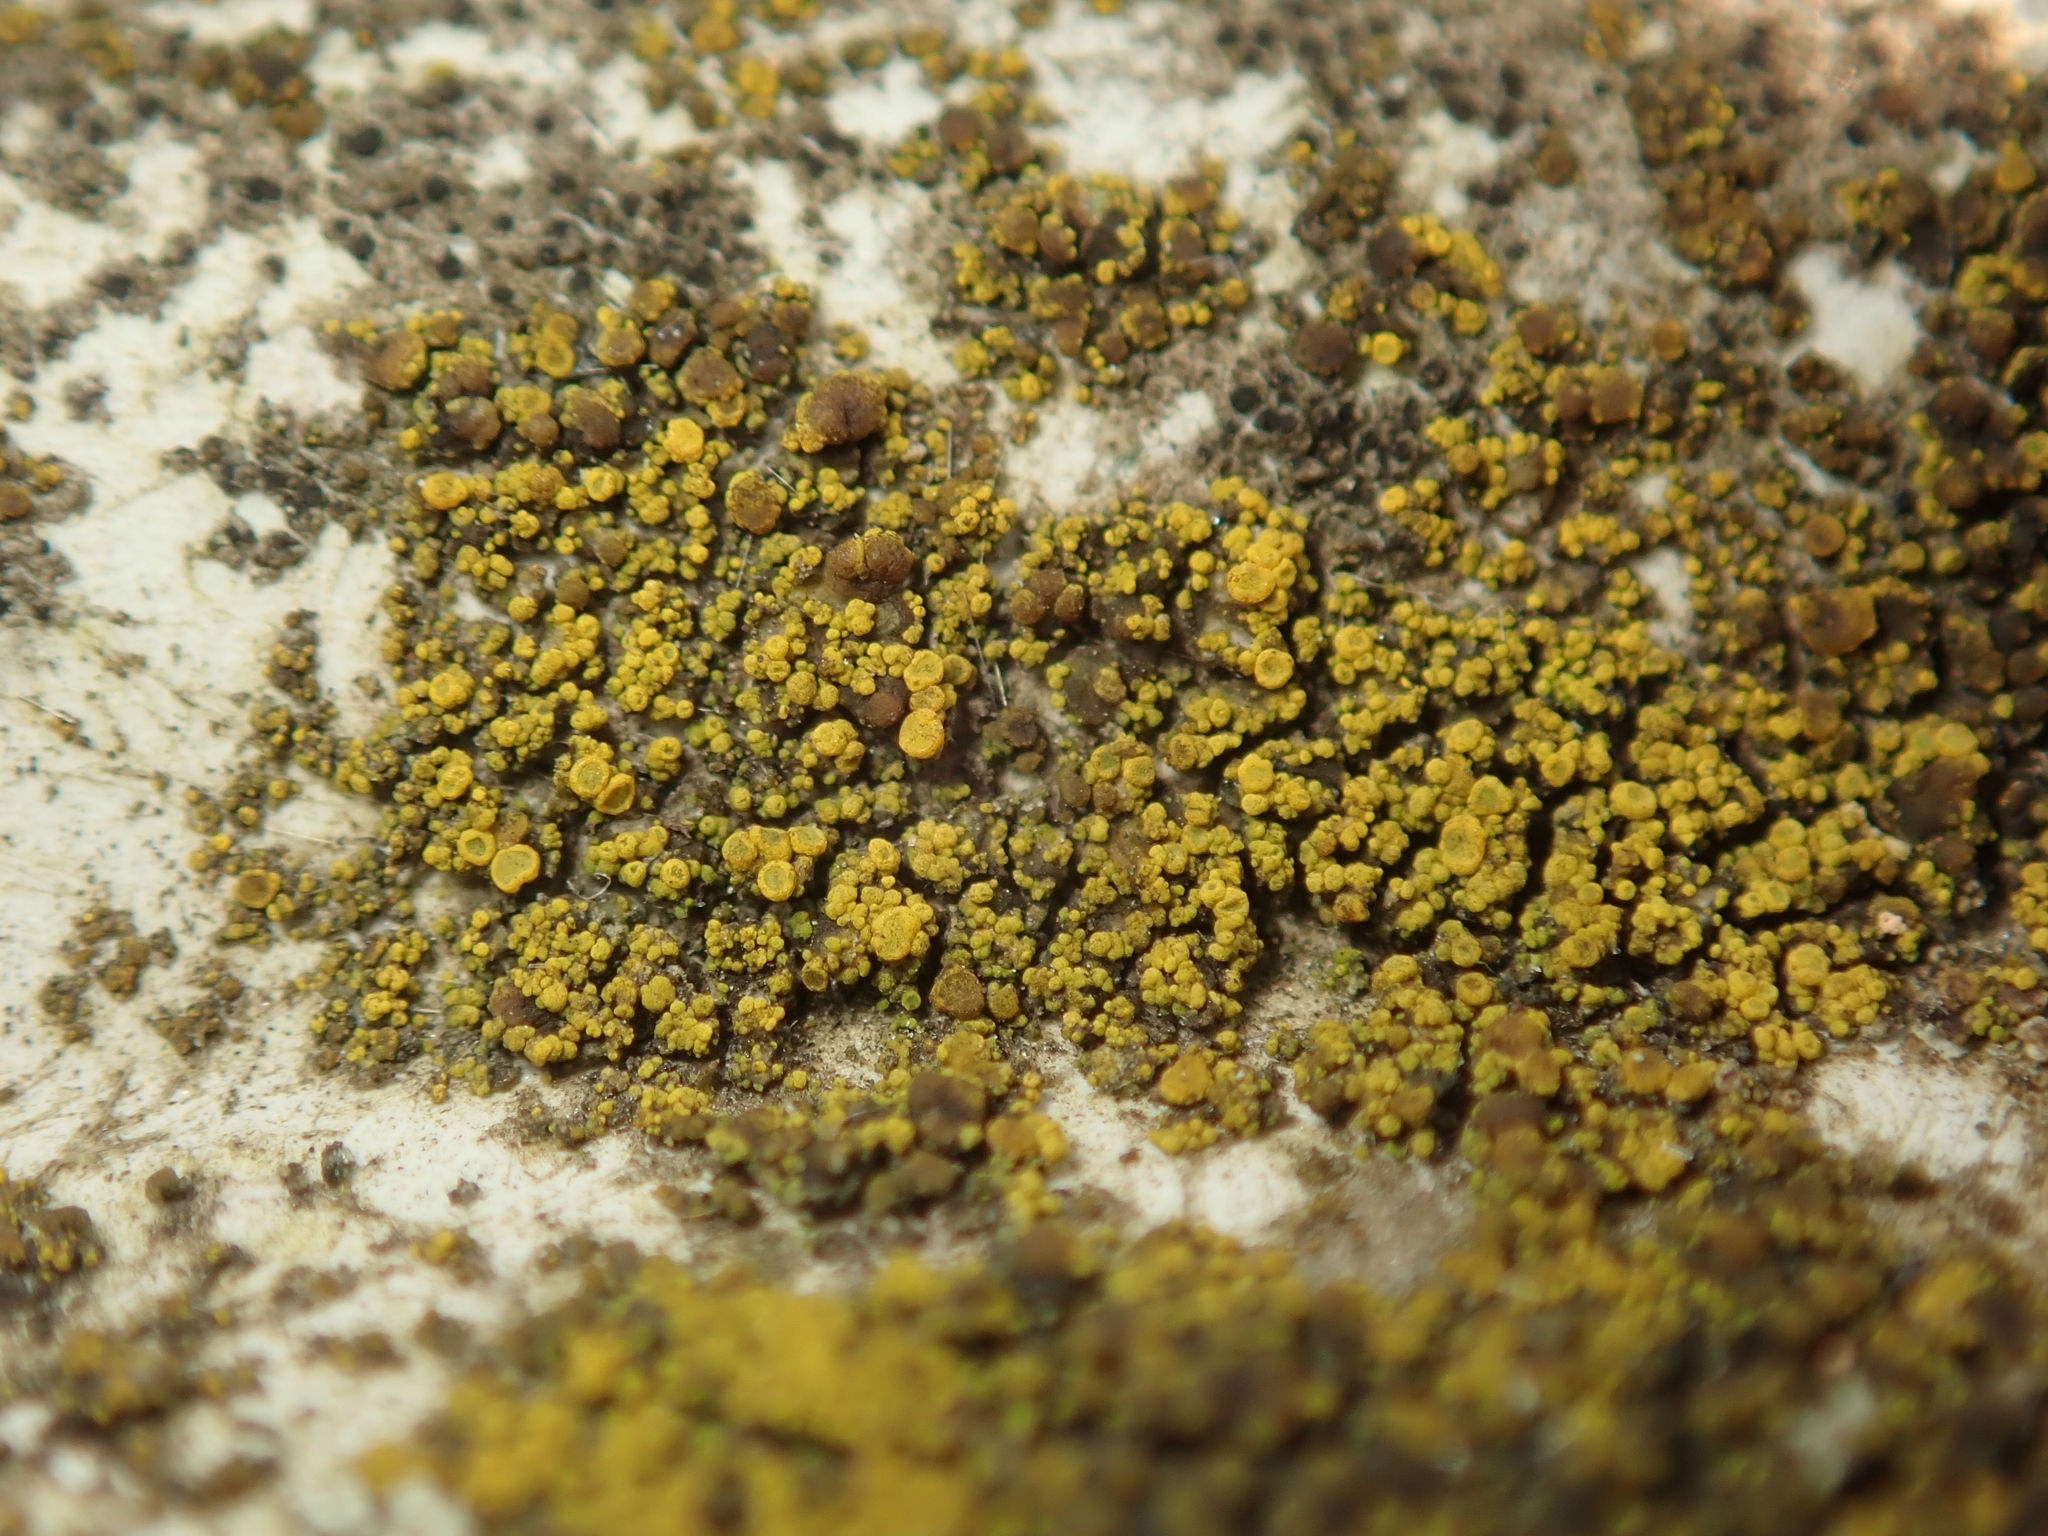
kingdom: Fungi
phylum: Ascomycota
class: Candelariomycetes
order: Candelariales
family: Candelariaceae
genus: Candelariella
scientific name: Candelariella vitellina
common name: Common goldspeck
